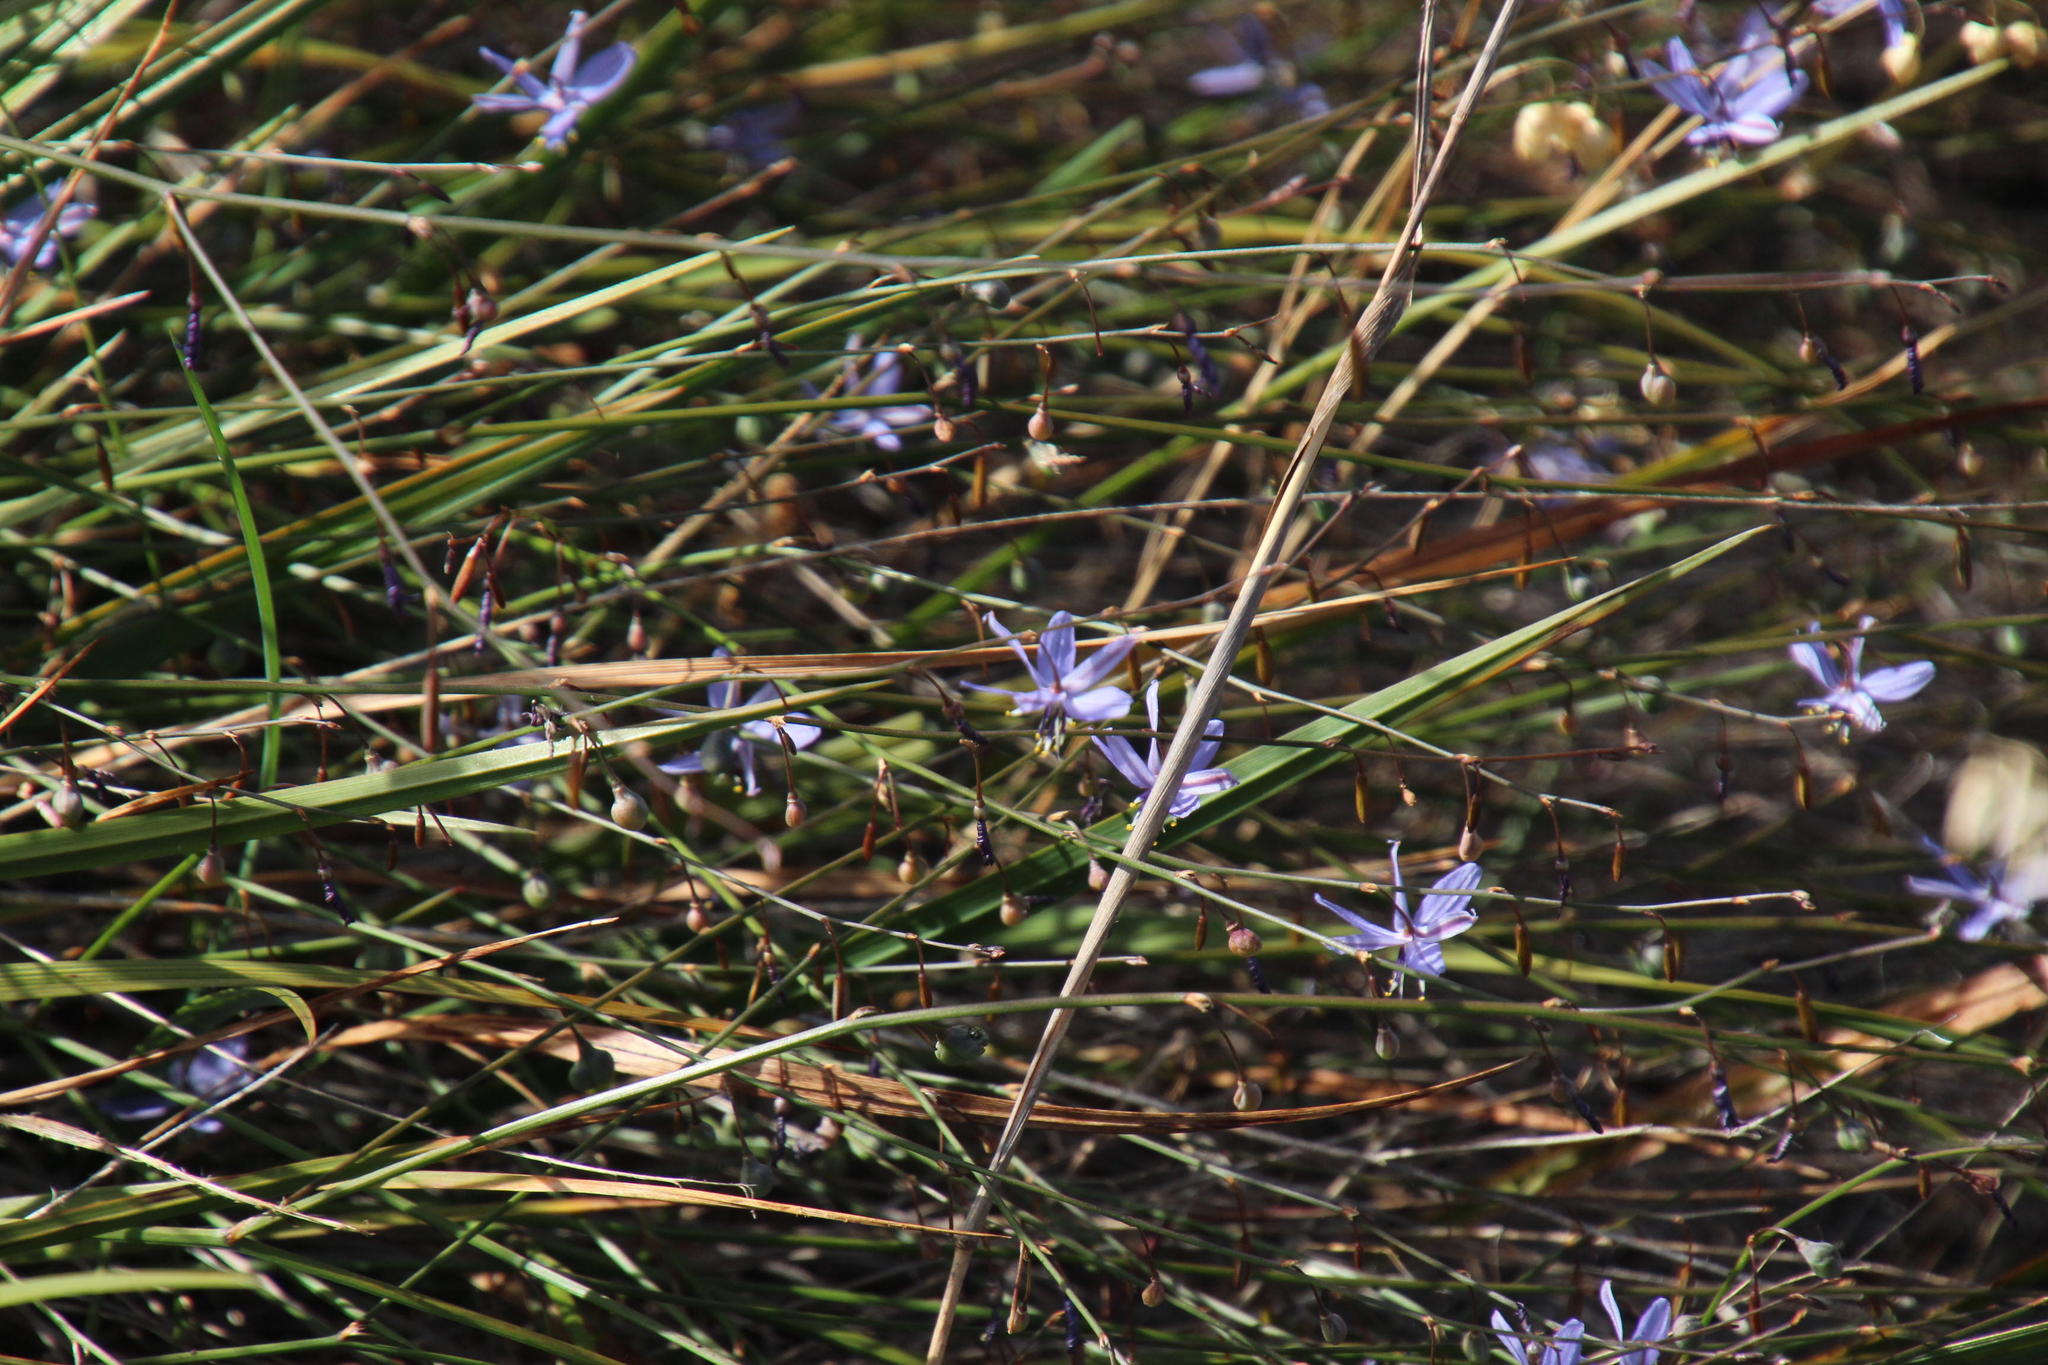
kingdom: Plantae
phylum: Tracheophyta
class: Liliopsida
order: Asparagales
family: Asphodelaceae
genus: Caesia
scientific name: Caesia contorta
